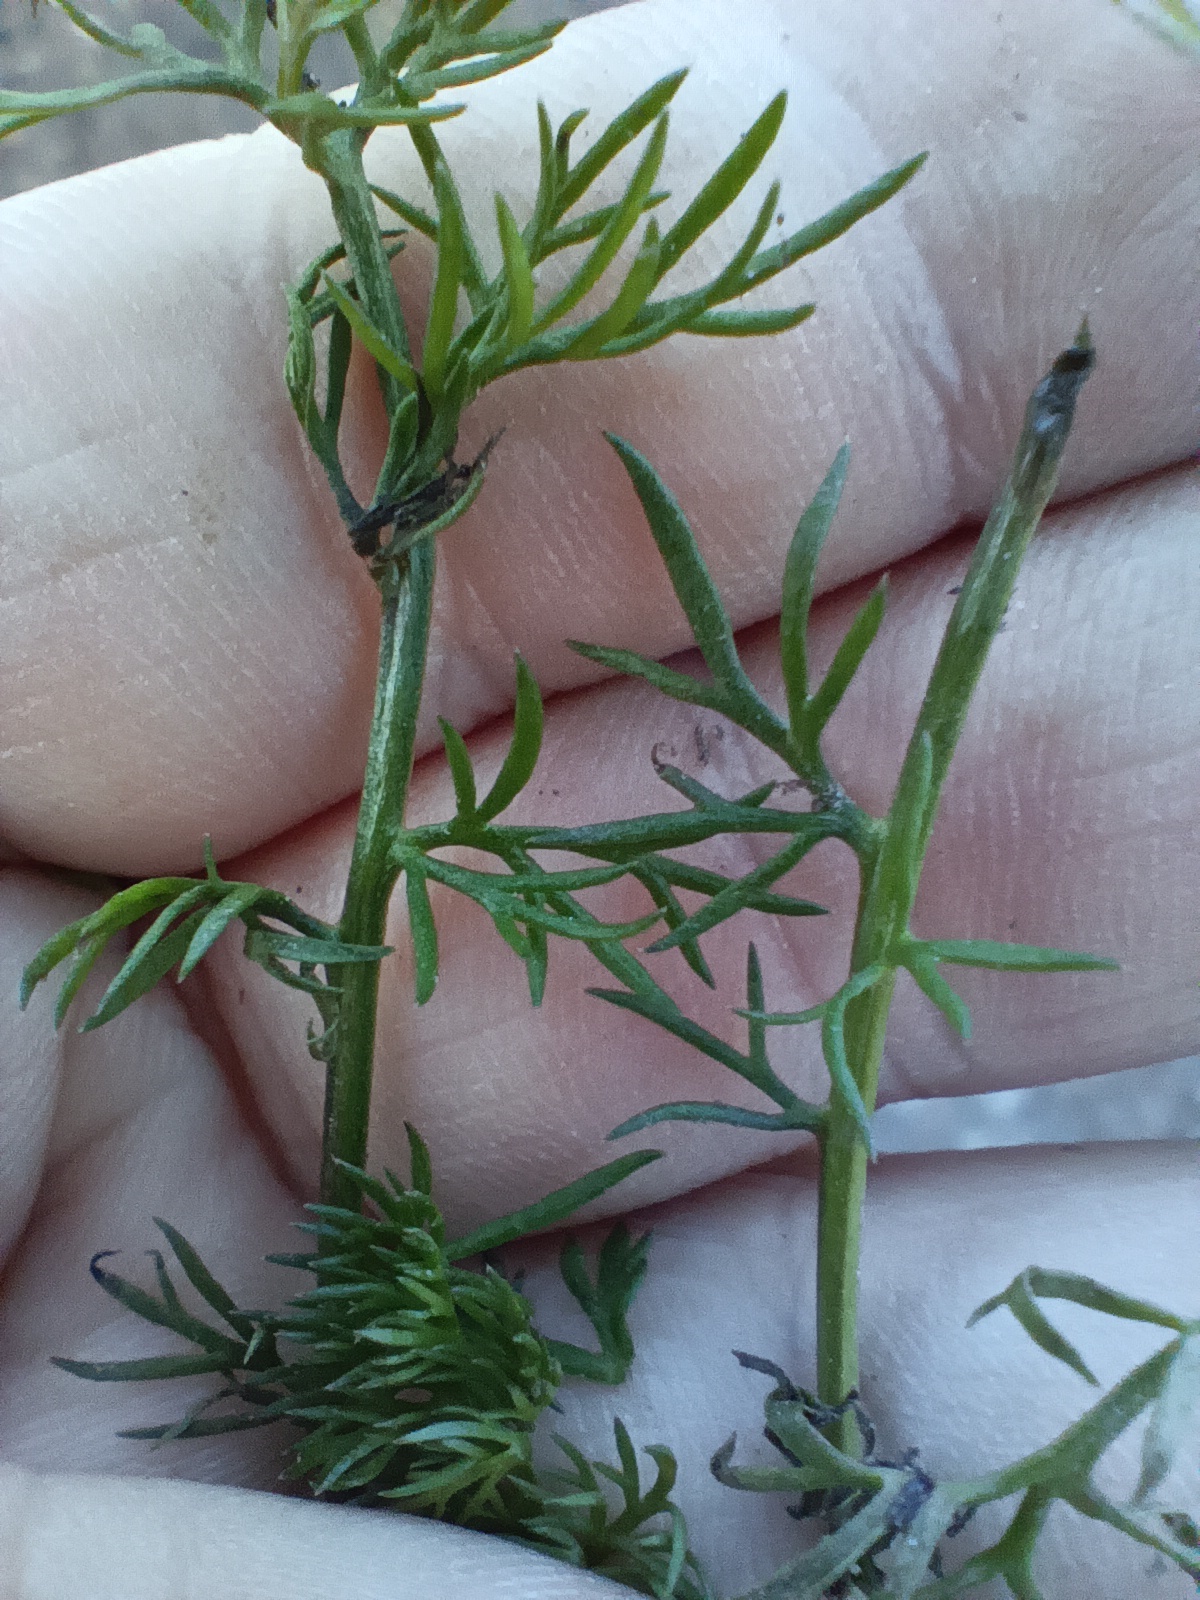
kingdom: Plantae
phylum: Tracheophyta
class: Magnoliopsida
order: Asterales
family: Asteraceae
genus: Tripleurospermum
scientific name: Tripleurospermum inodorum
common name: Scentless mayweed
